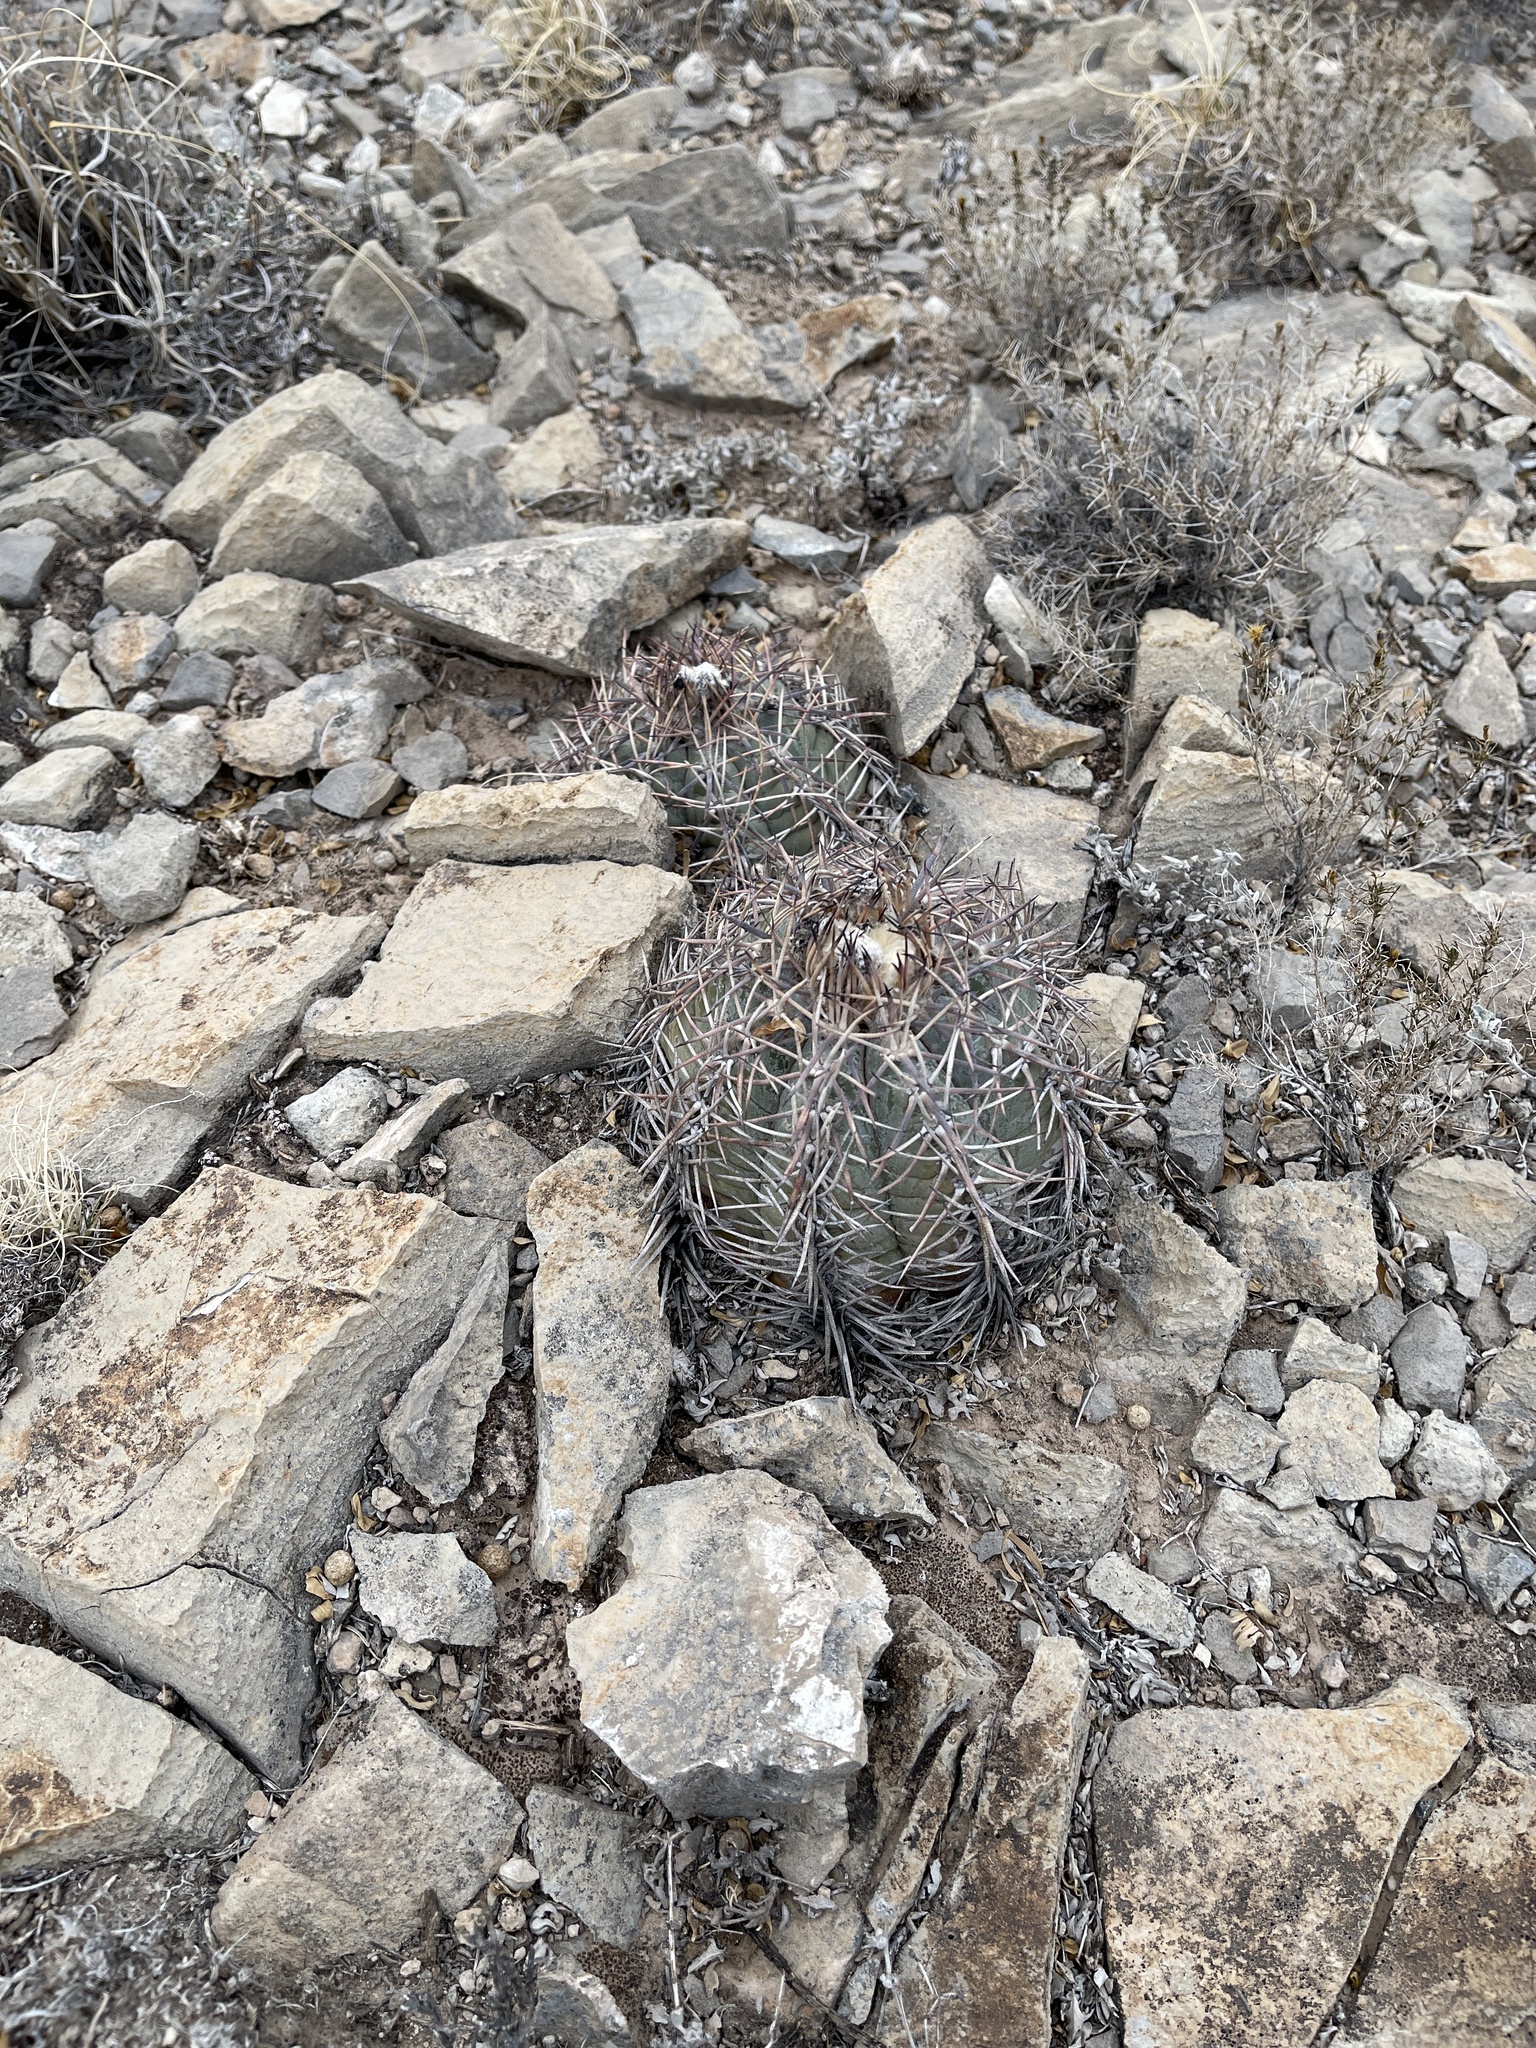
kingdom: Plantae
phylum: Tracheophyta
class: Magnoliopsida
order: Caryophyllales
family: Cactaceae
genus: Echinocactus
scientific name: Echinocactus horizonthalonius
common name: Devilshead
